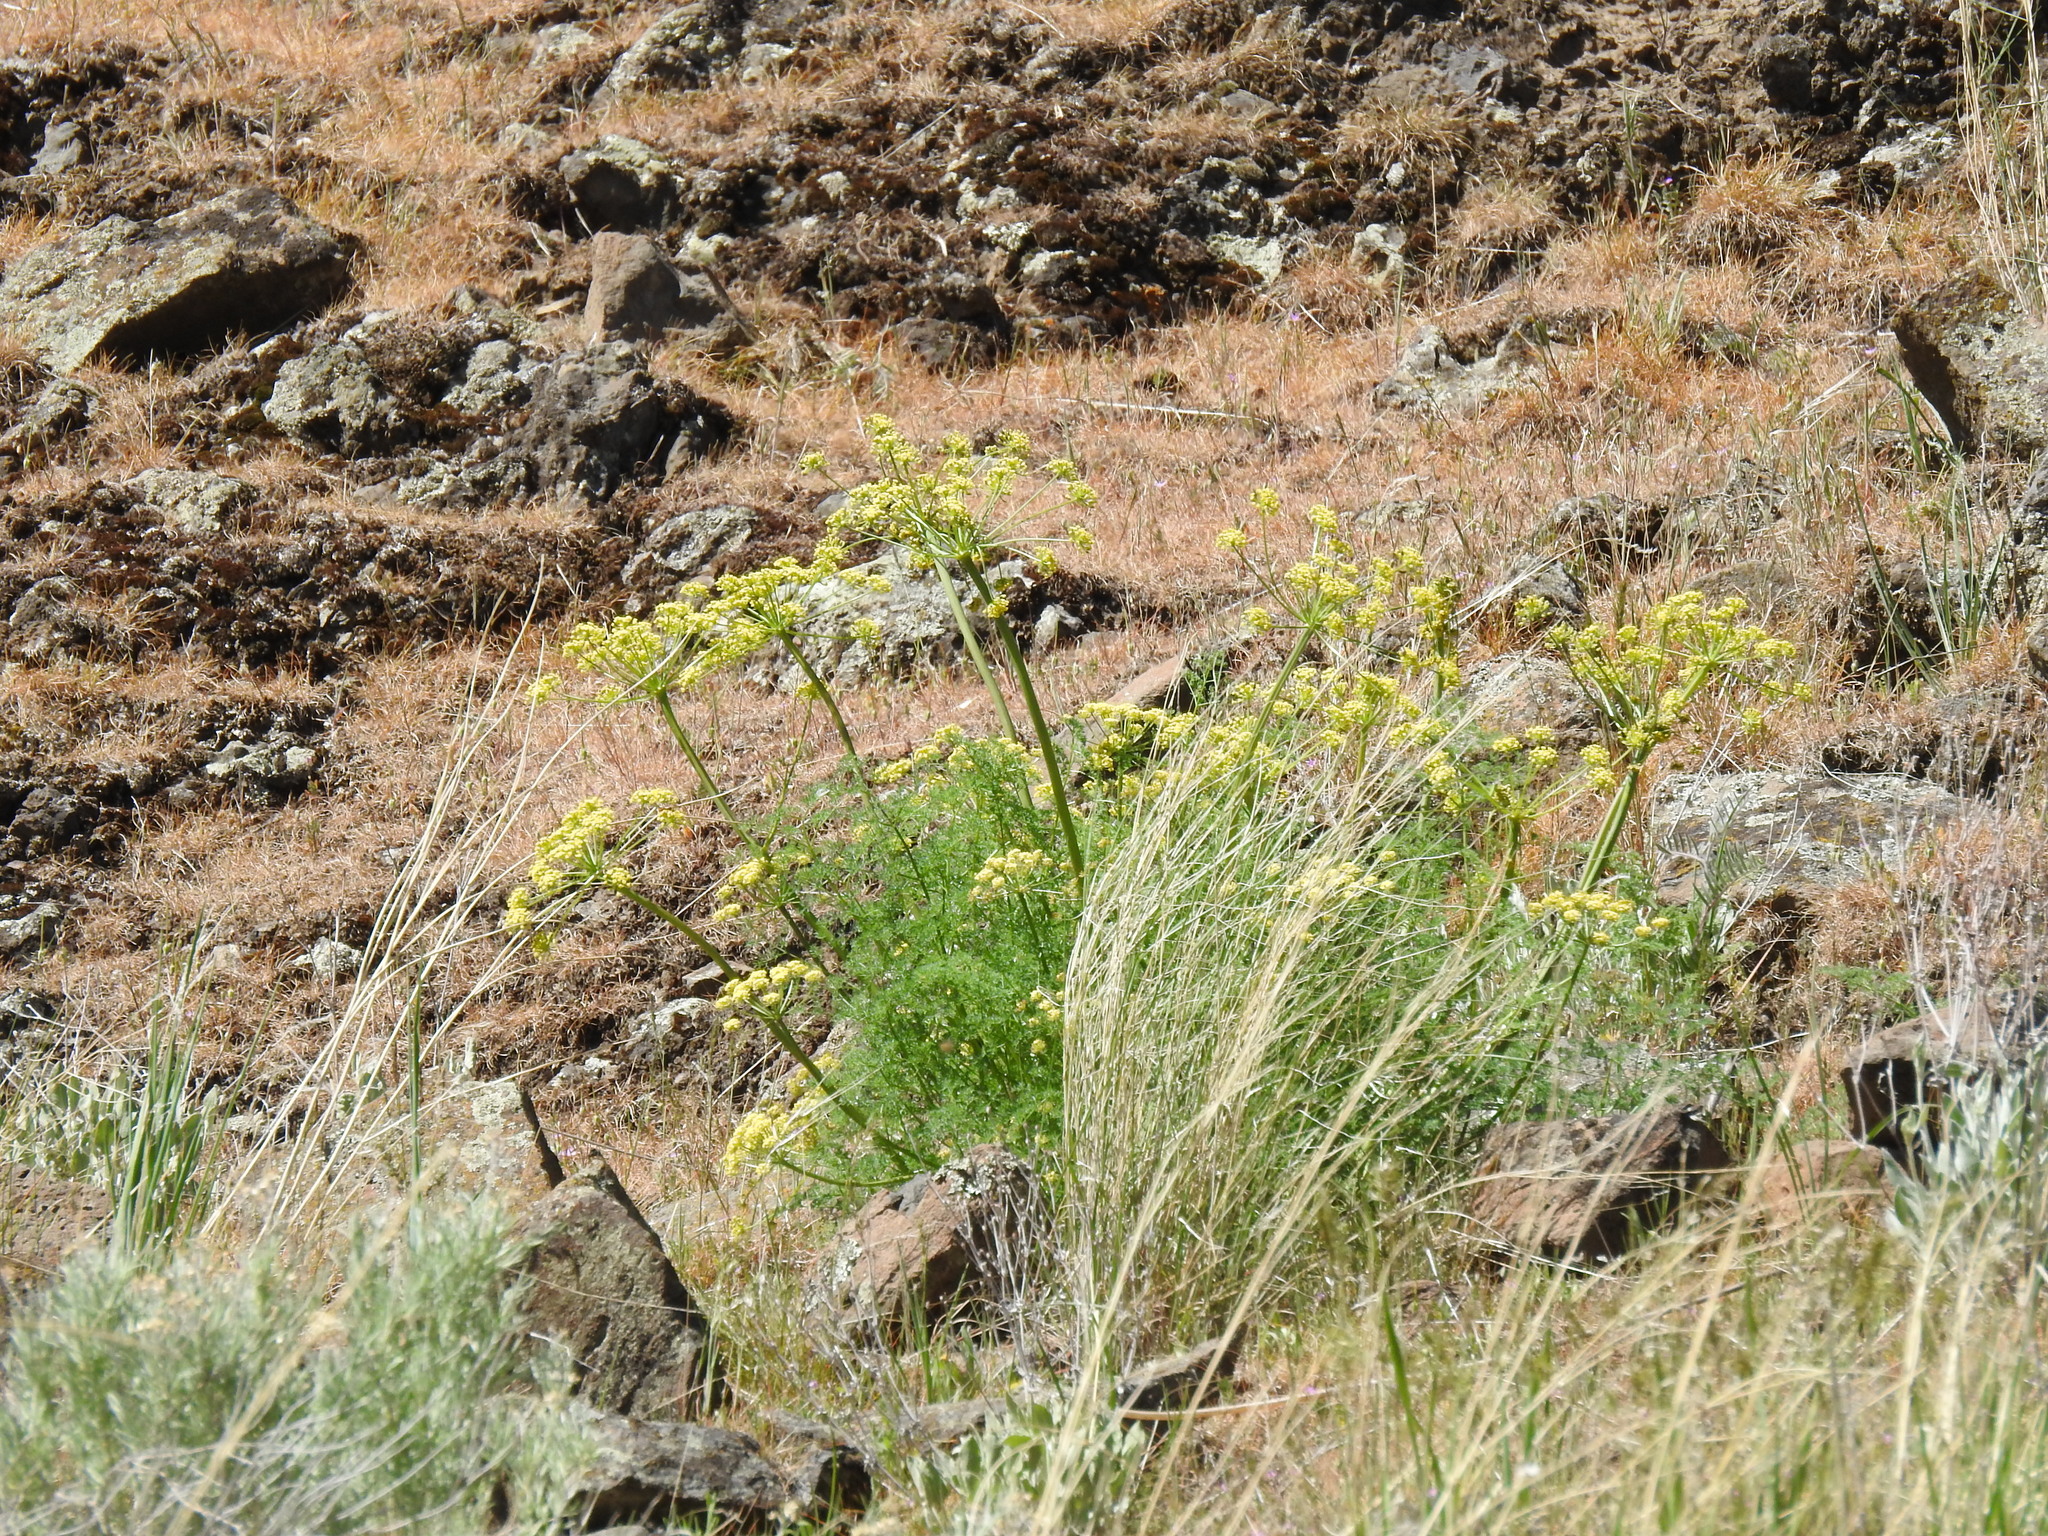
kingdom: Plantae
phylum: Tracheophyta
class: Magnoliopsida
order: Apiales
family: Apiaceae
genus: Lomatium
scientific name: Lomatium papilioniferum
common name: Butterfly lomatium
